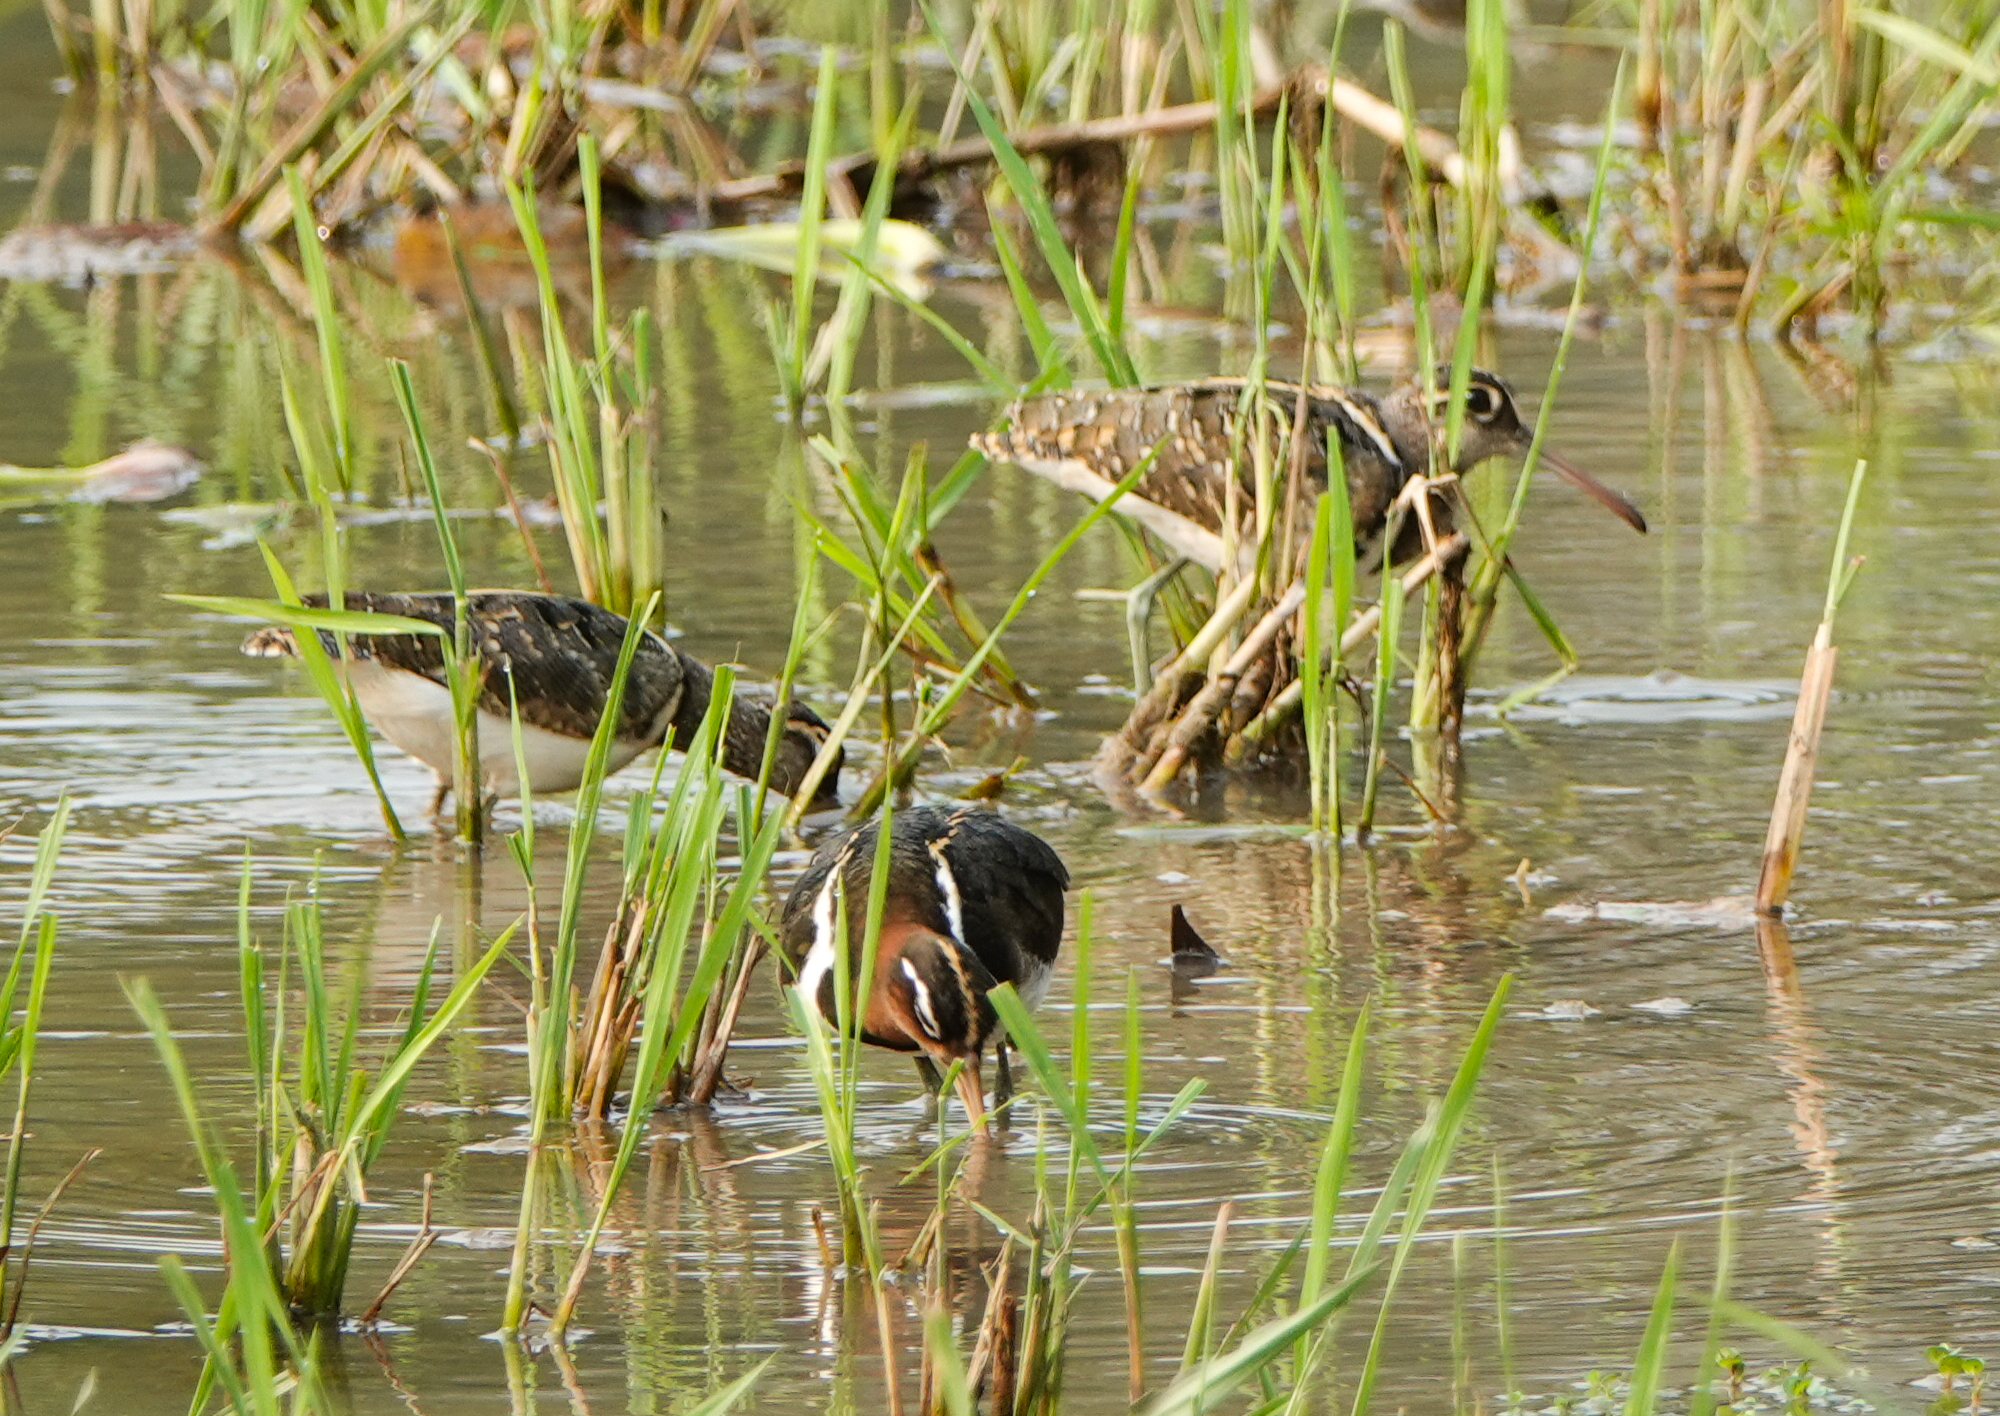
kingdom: Animalia
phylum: Chordata
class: Aves
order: Charadriiformes
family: Rostratulidae
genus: Rostratula
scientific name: Rostratula benghalensis
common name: Greater painted-snipe
